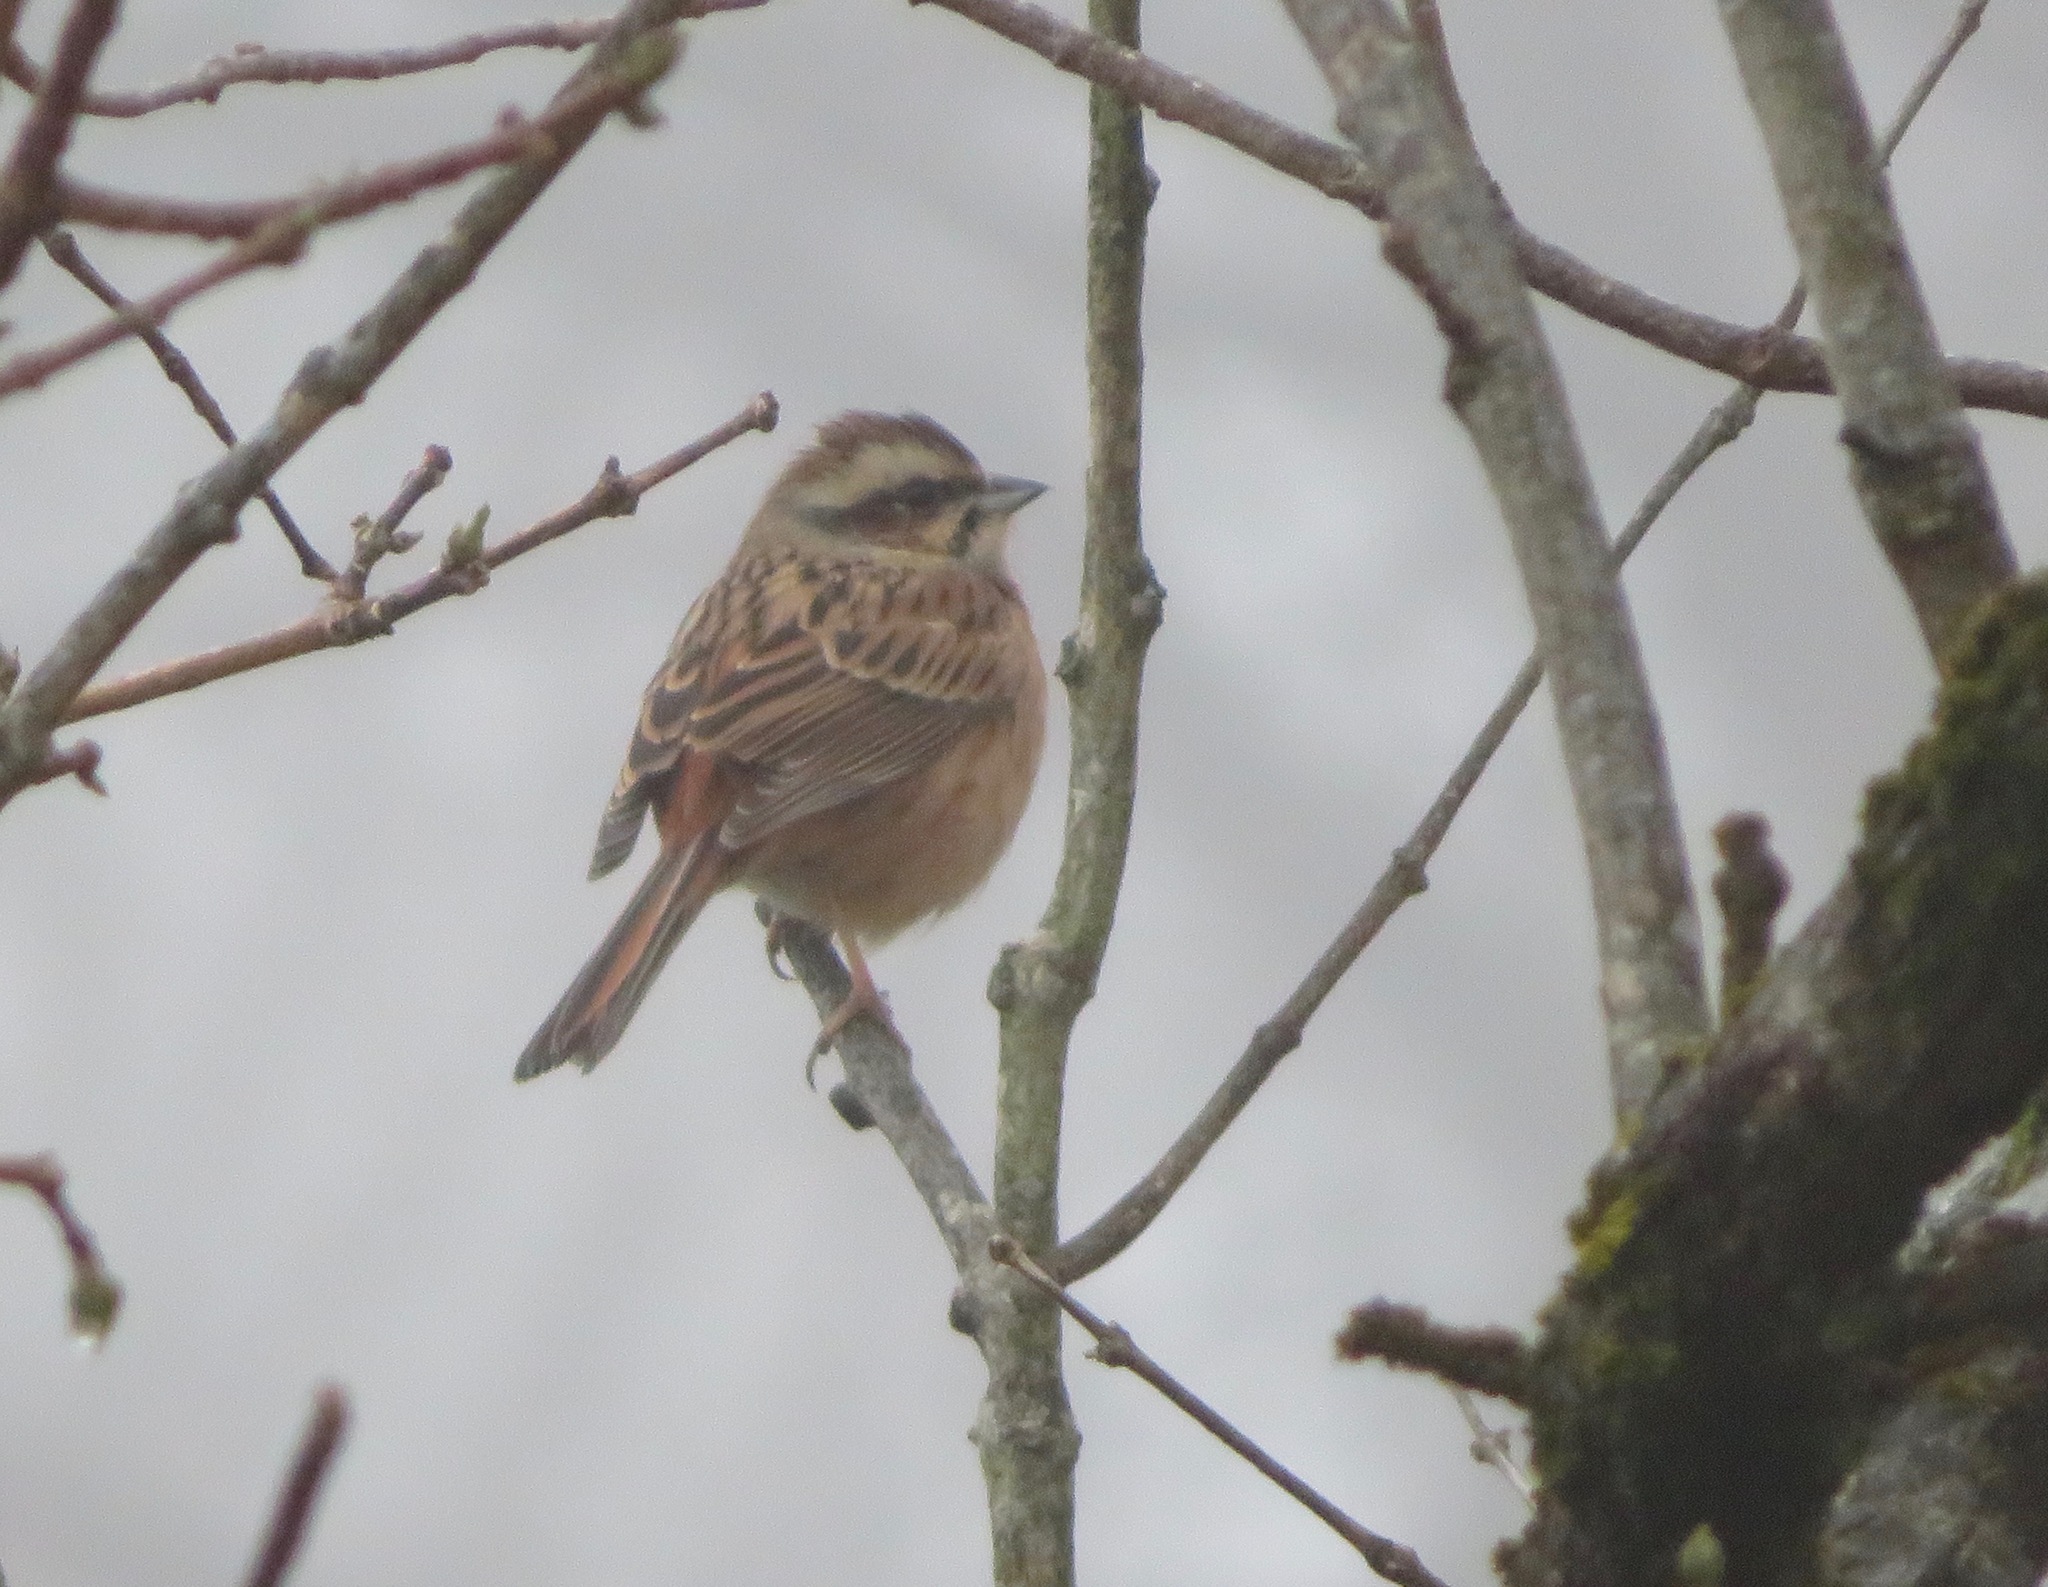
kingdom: Animalia
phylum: Chordata
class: Aves
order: Passeriformes
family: Emberizidae
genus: Emberiza
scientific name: Emberiza cioides
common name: Meadow bunting
